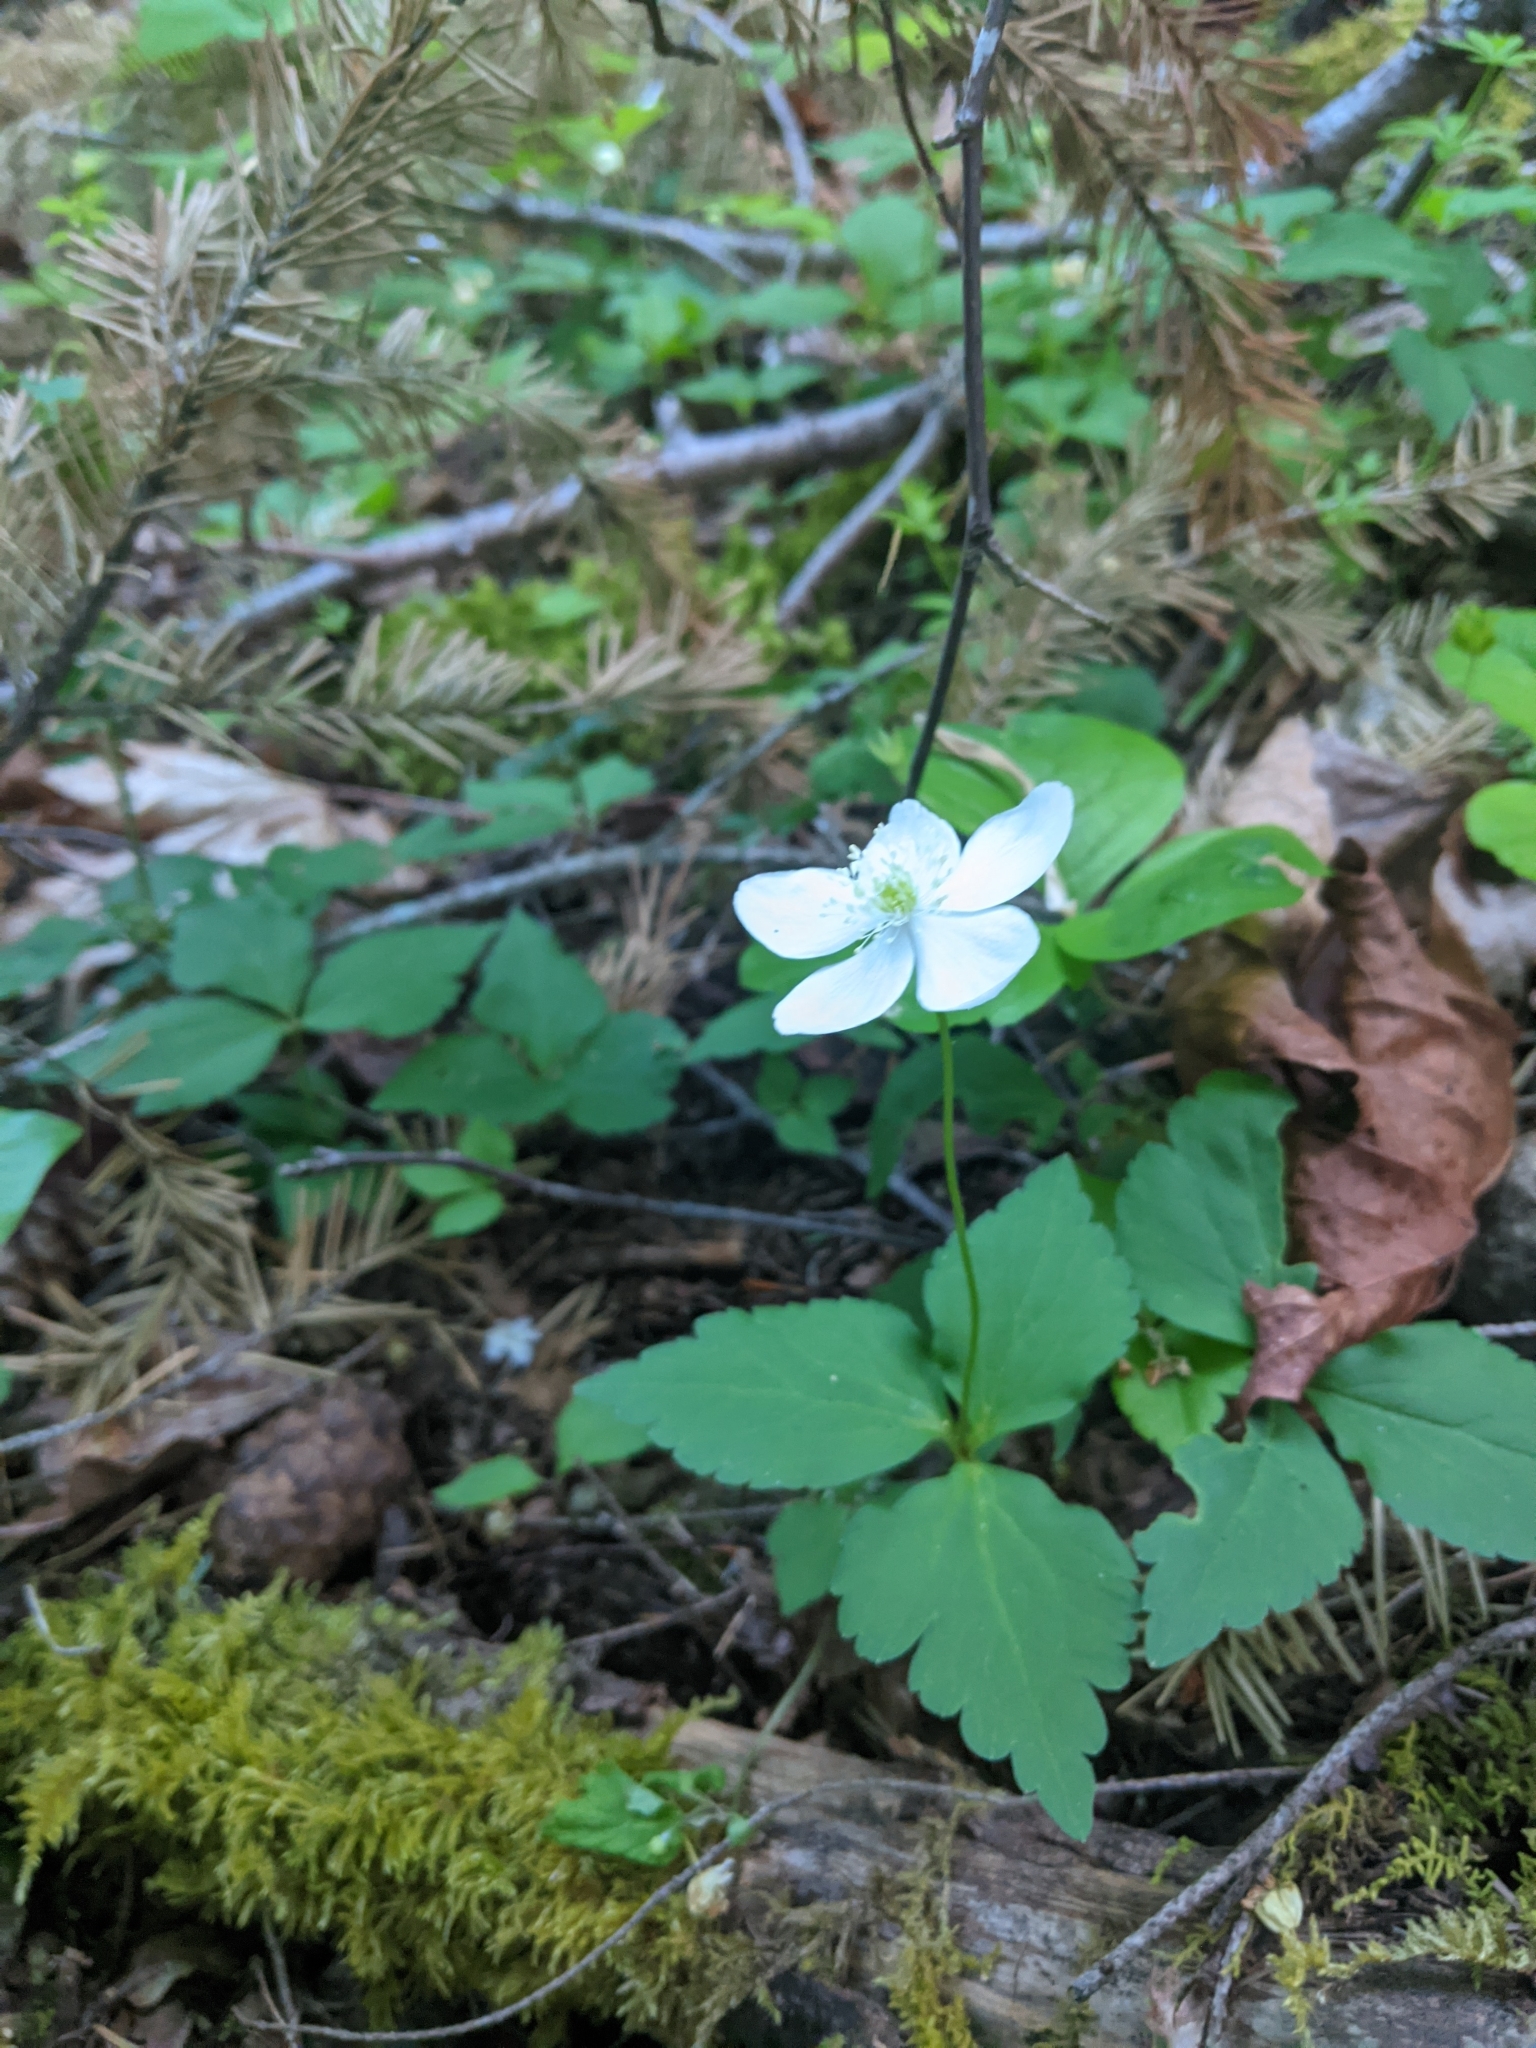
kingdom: Plantae
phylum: Tracheophyta
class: Magnoliopsida
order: Ranunculales
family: Ranunculaceae
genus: Anemonastrum
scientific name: Anemonastrum deltoideum
